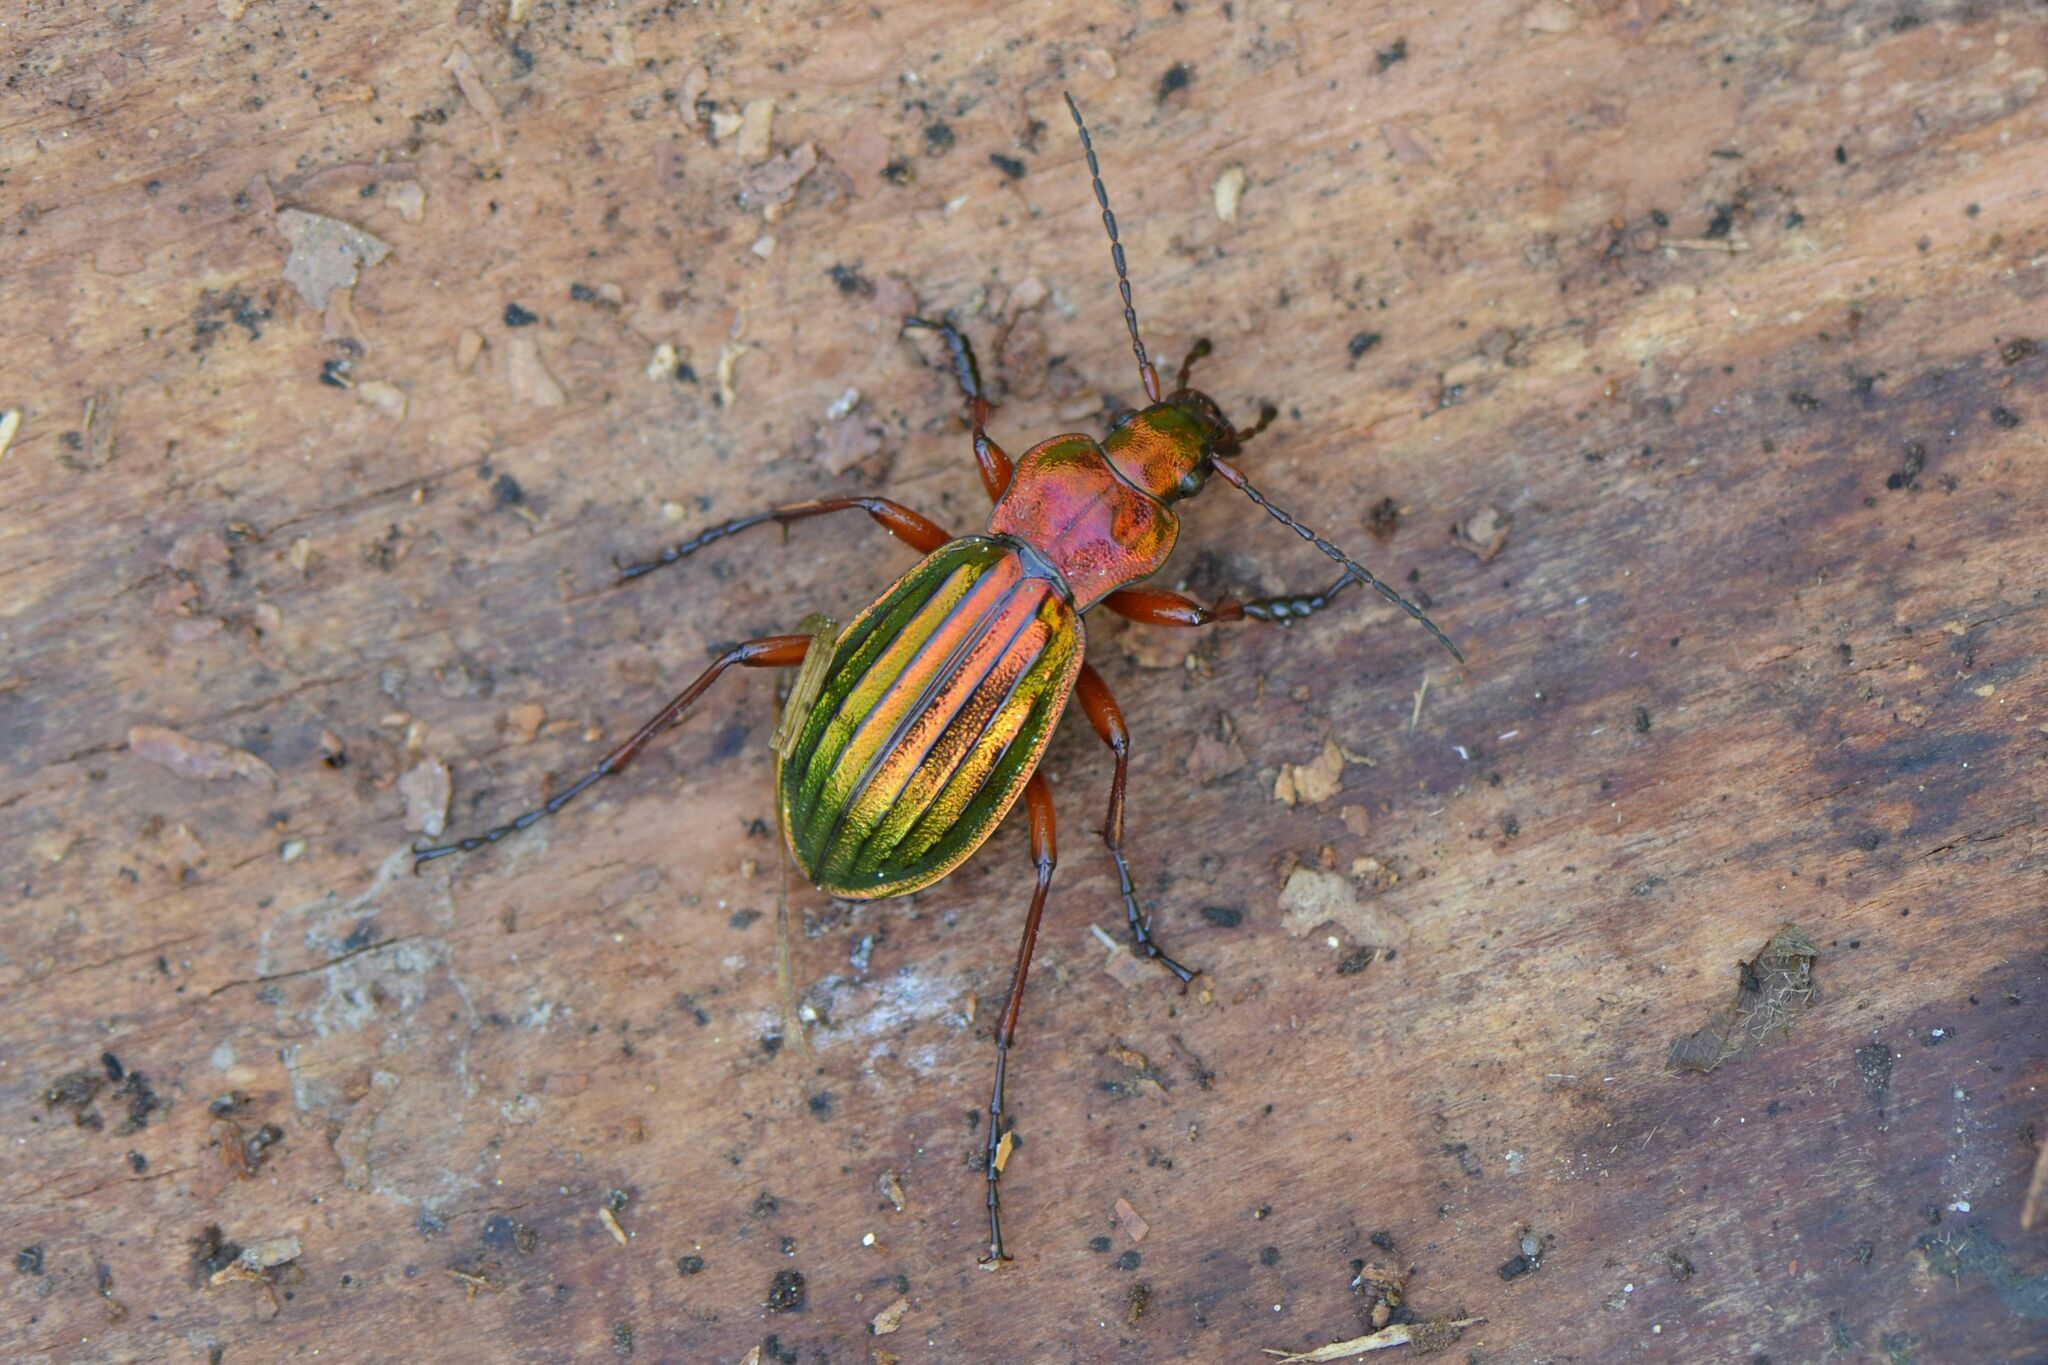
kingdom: Animalia
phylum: Arthropoda
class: Insecta
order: Coleoptera
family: Carabidae
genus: Carabus
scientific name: Carabus auronitens
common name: Carabus auronitens
